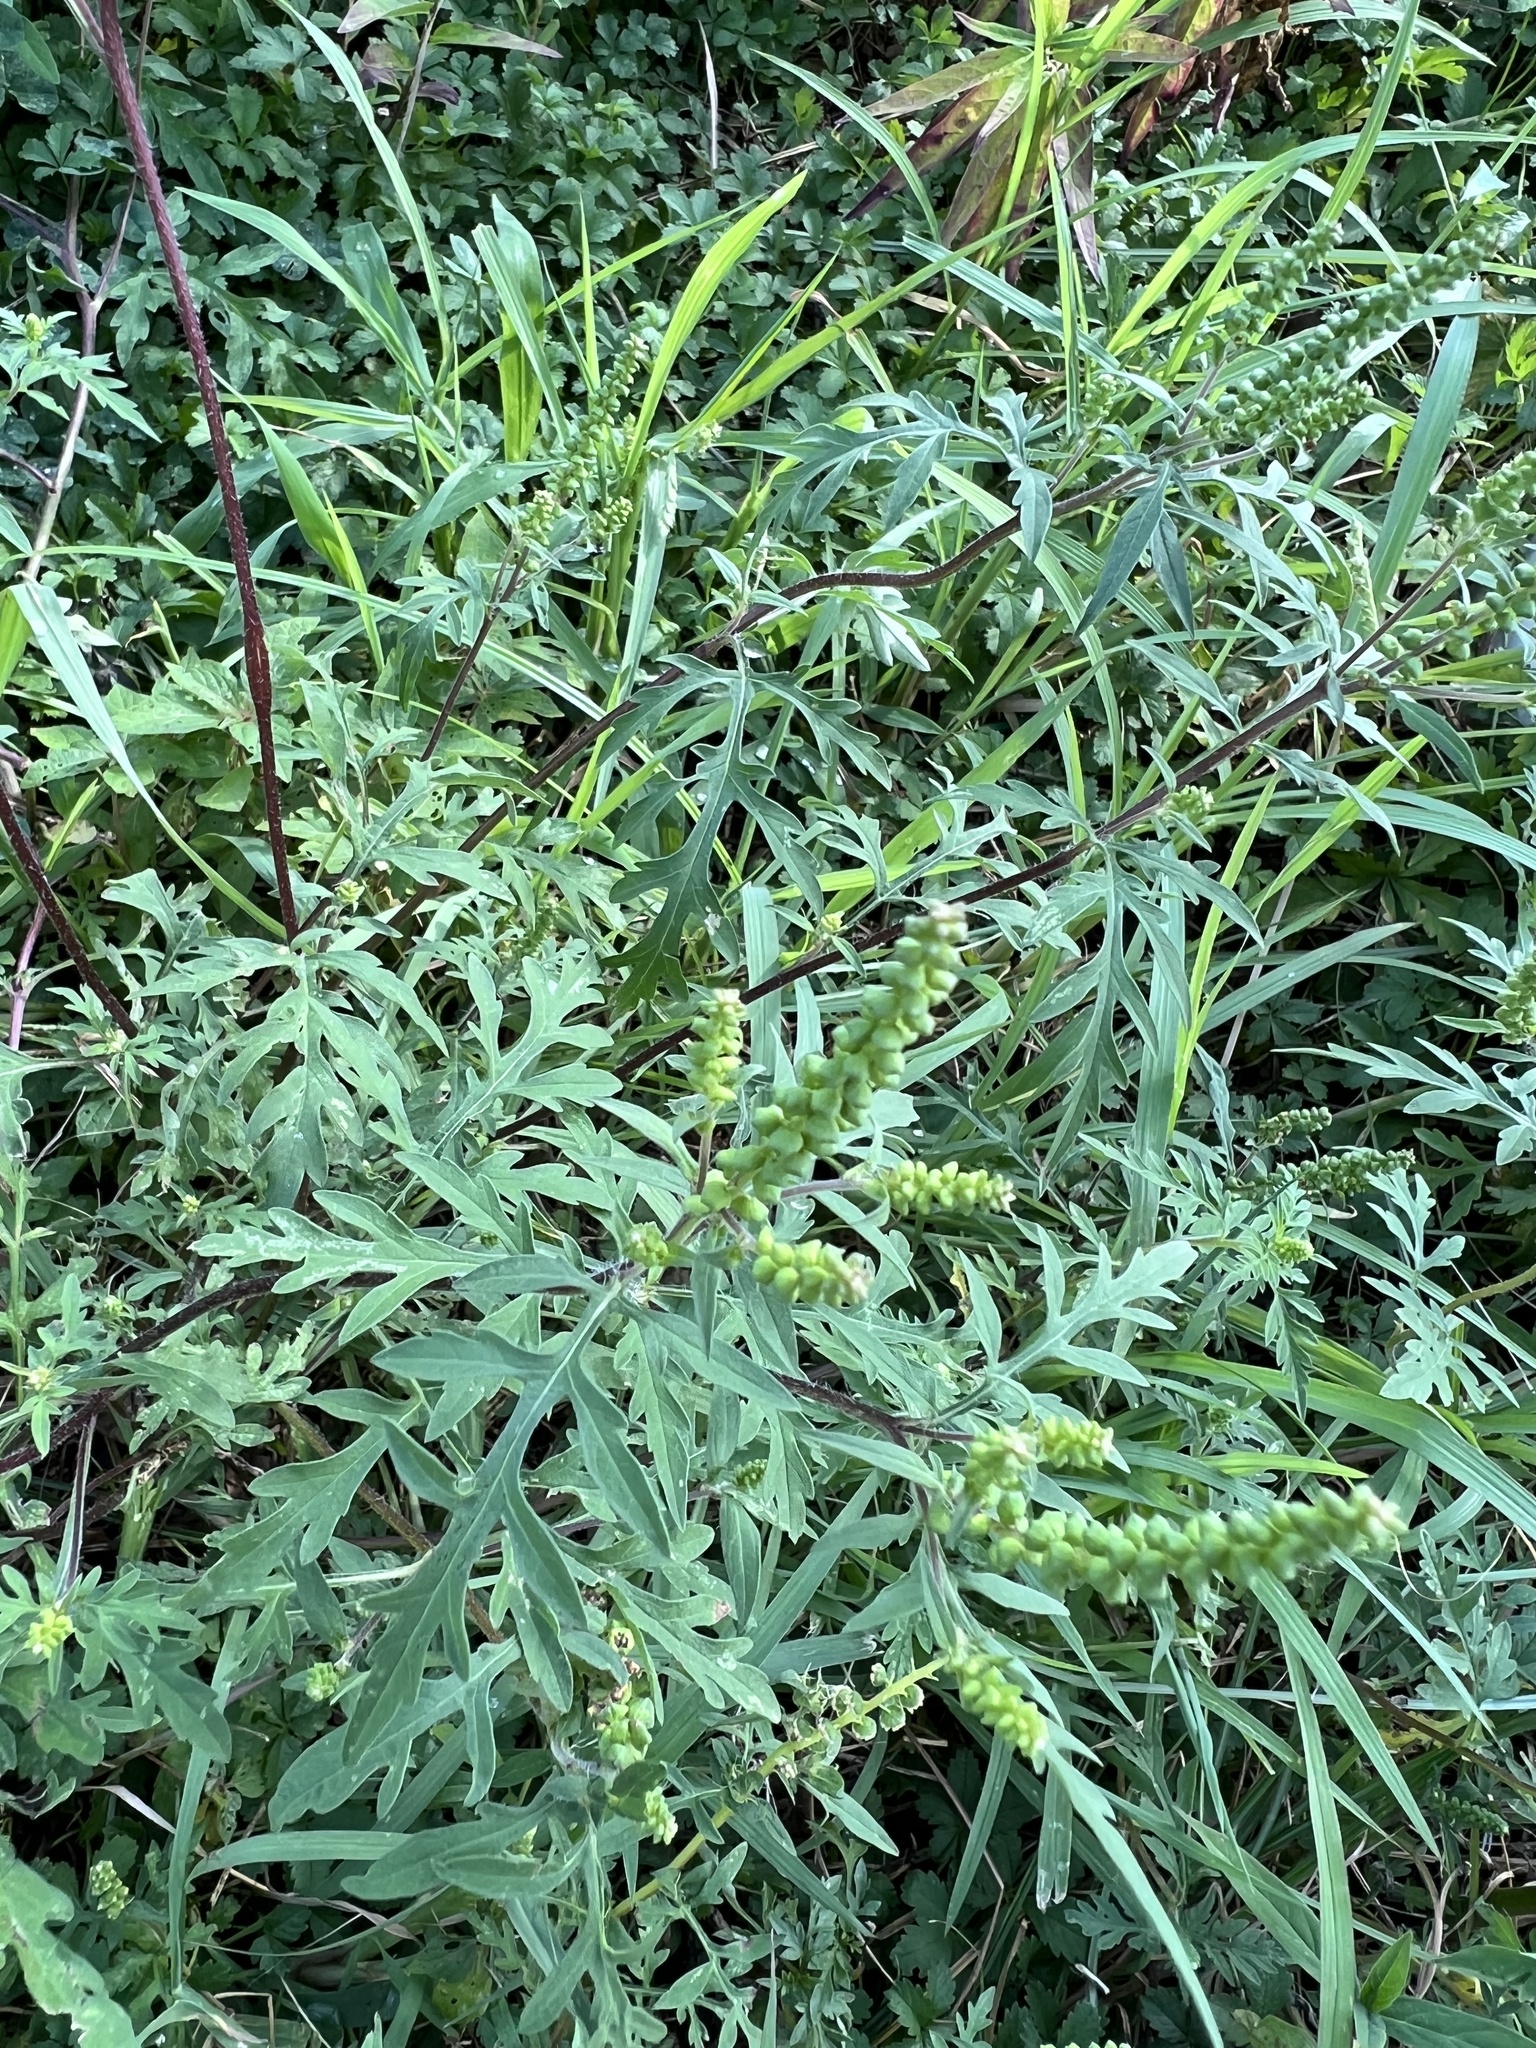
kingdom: Plantae
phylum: Tracheophyta
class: Magnoliopsida
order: Asterales
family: Asteraceae
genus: Ambrosia
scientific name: Ambrosia artemisiifolia
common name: Annual ragweed
